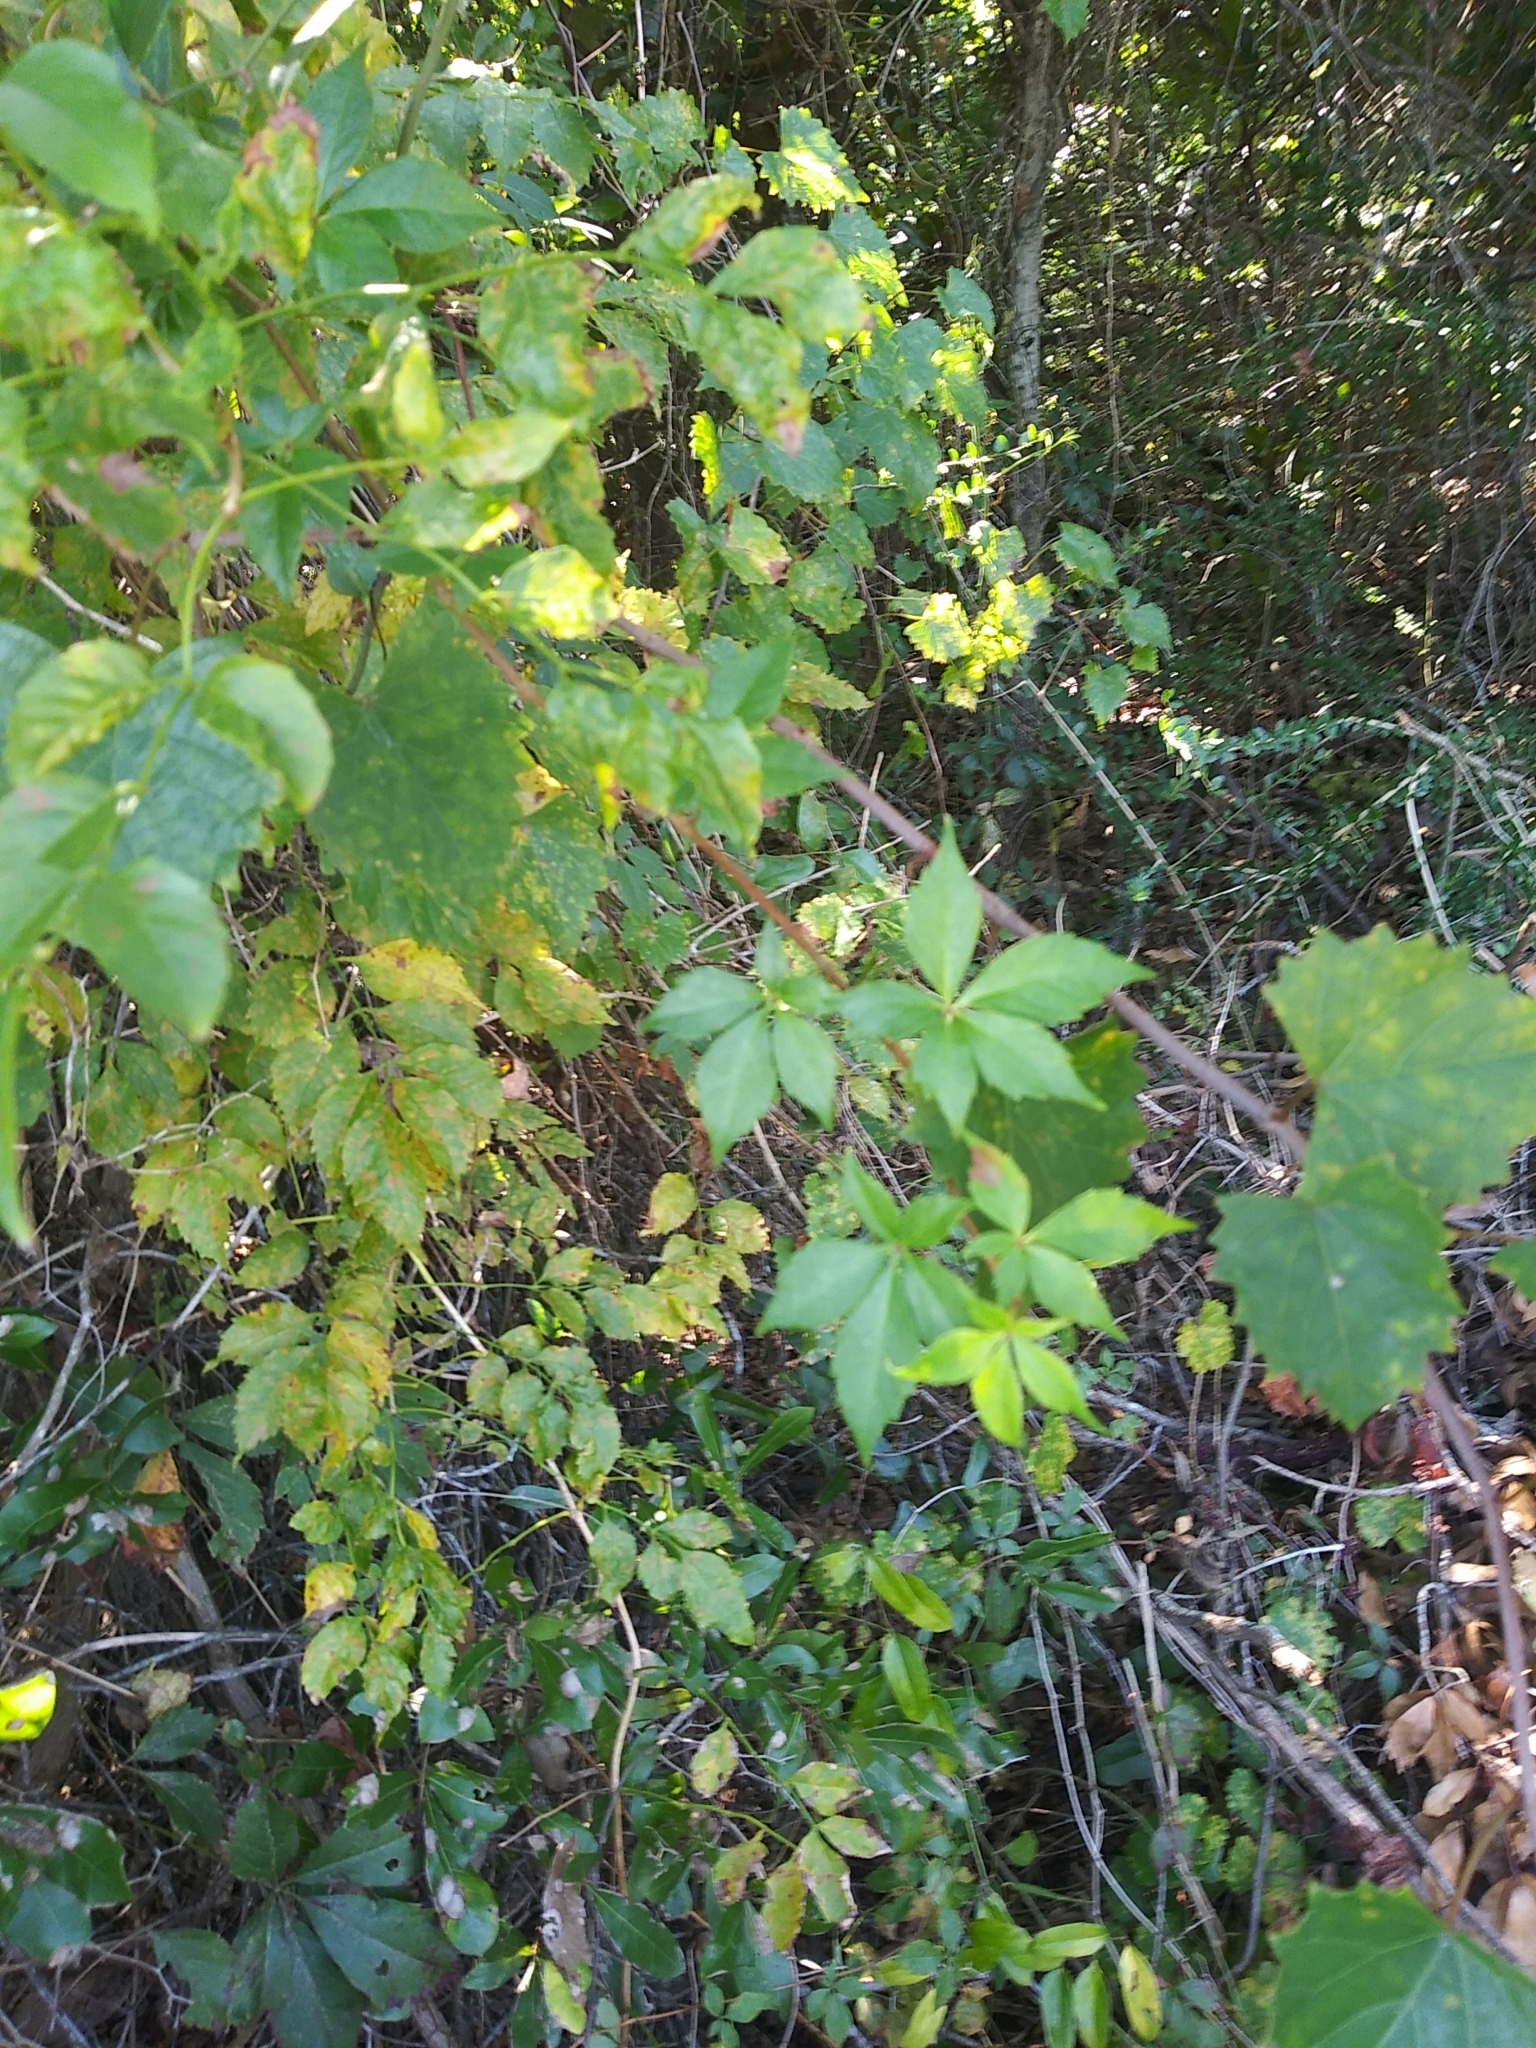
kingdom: Plantae
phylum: Tracheophyta
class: Magnoliopsida
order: Vitales
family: Vitaceae
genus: Parthenocissus
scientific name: Parthenocissus quinquefolia
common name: Virginia-creeper
